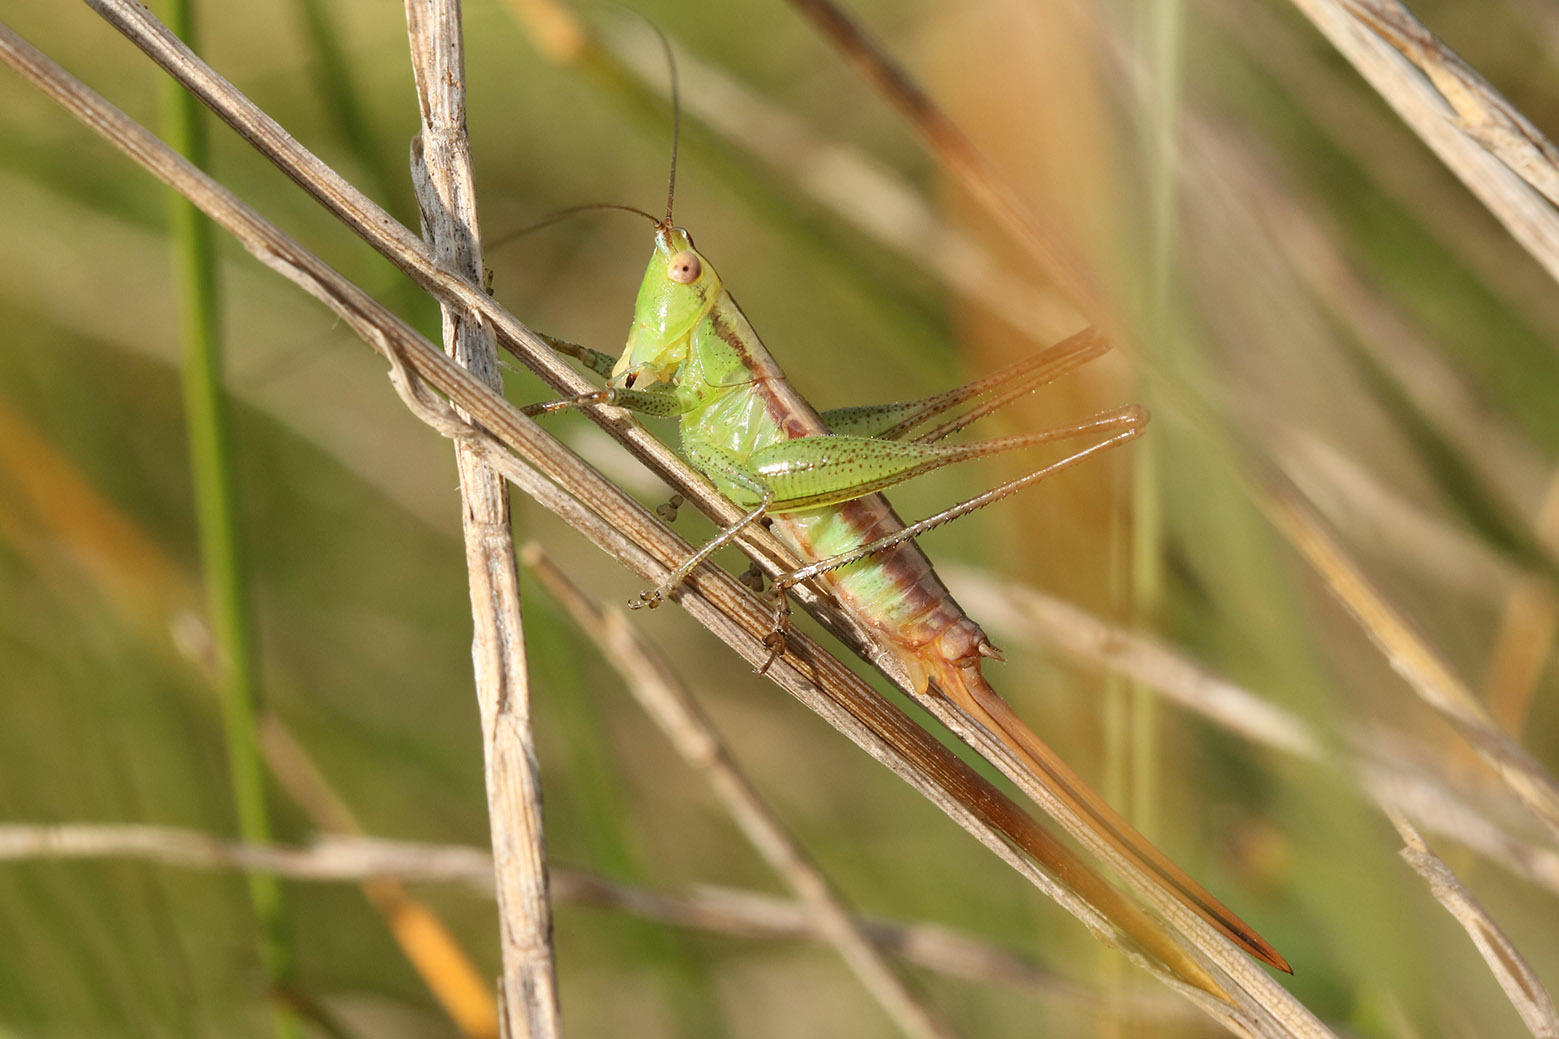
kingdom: Animalia
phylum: Arthropoda
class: Insecta
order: Orthoptera
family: Tettigoniidae
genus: Conocephalus
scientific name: Conocephalus doryphorus
